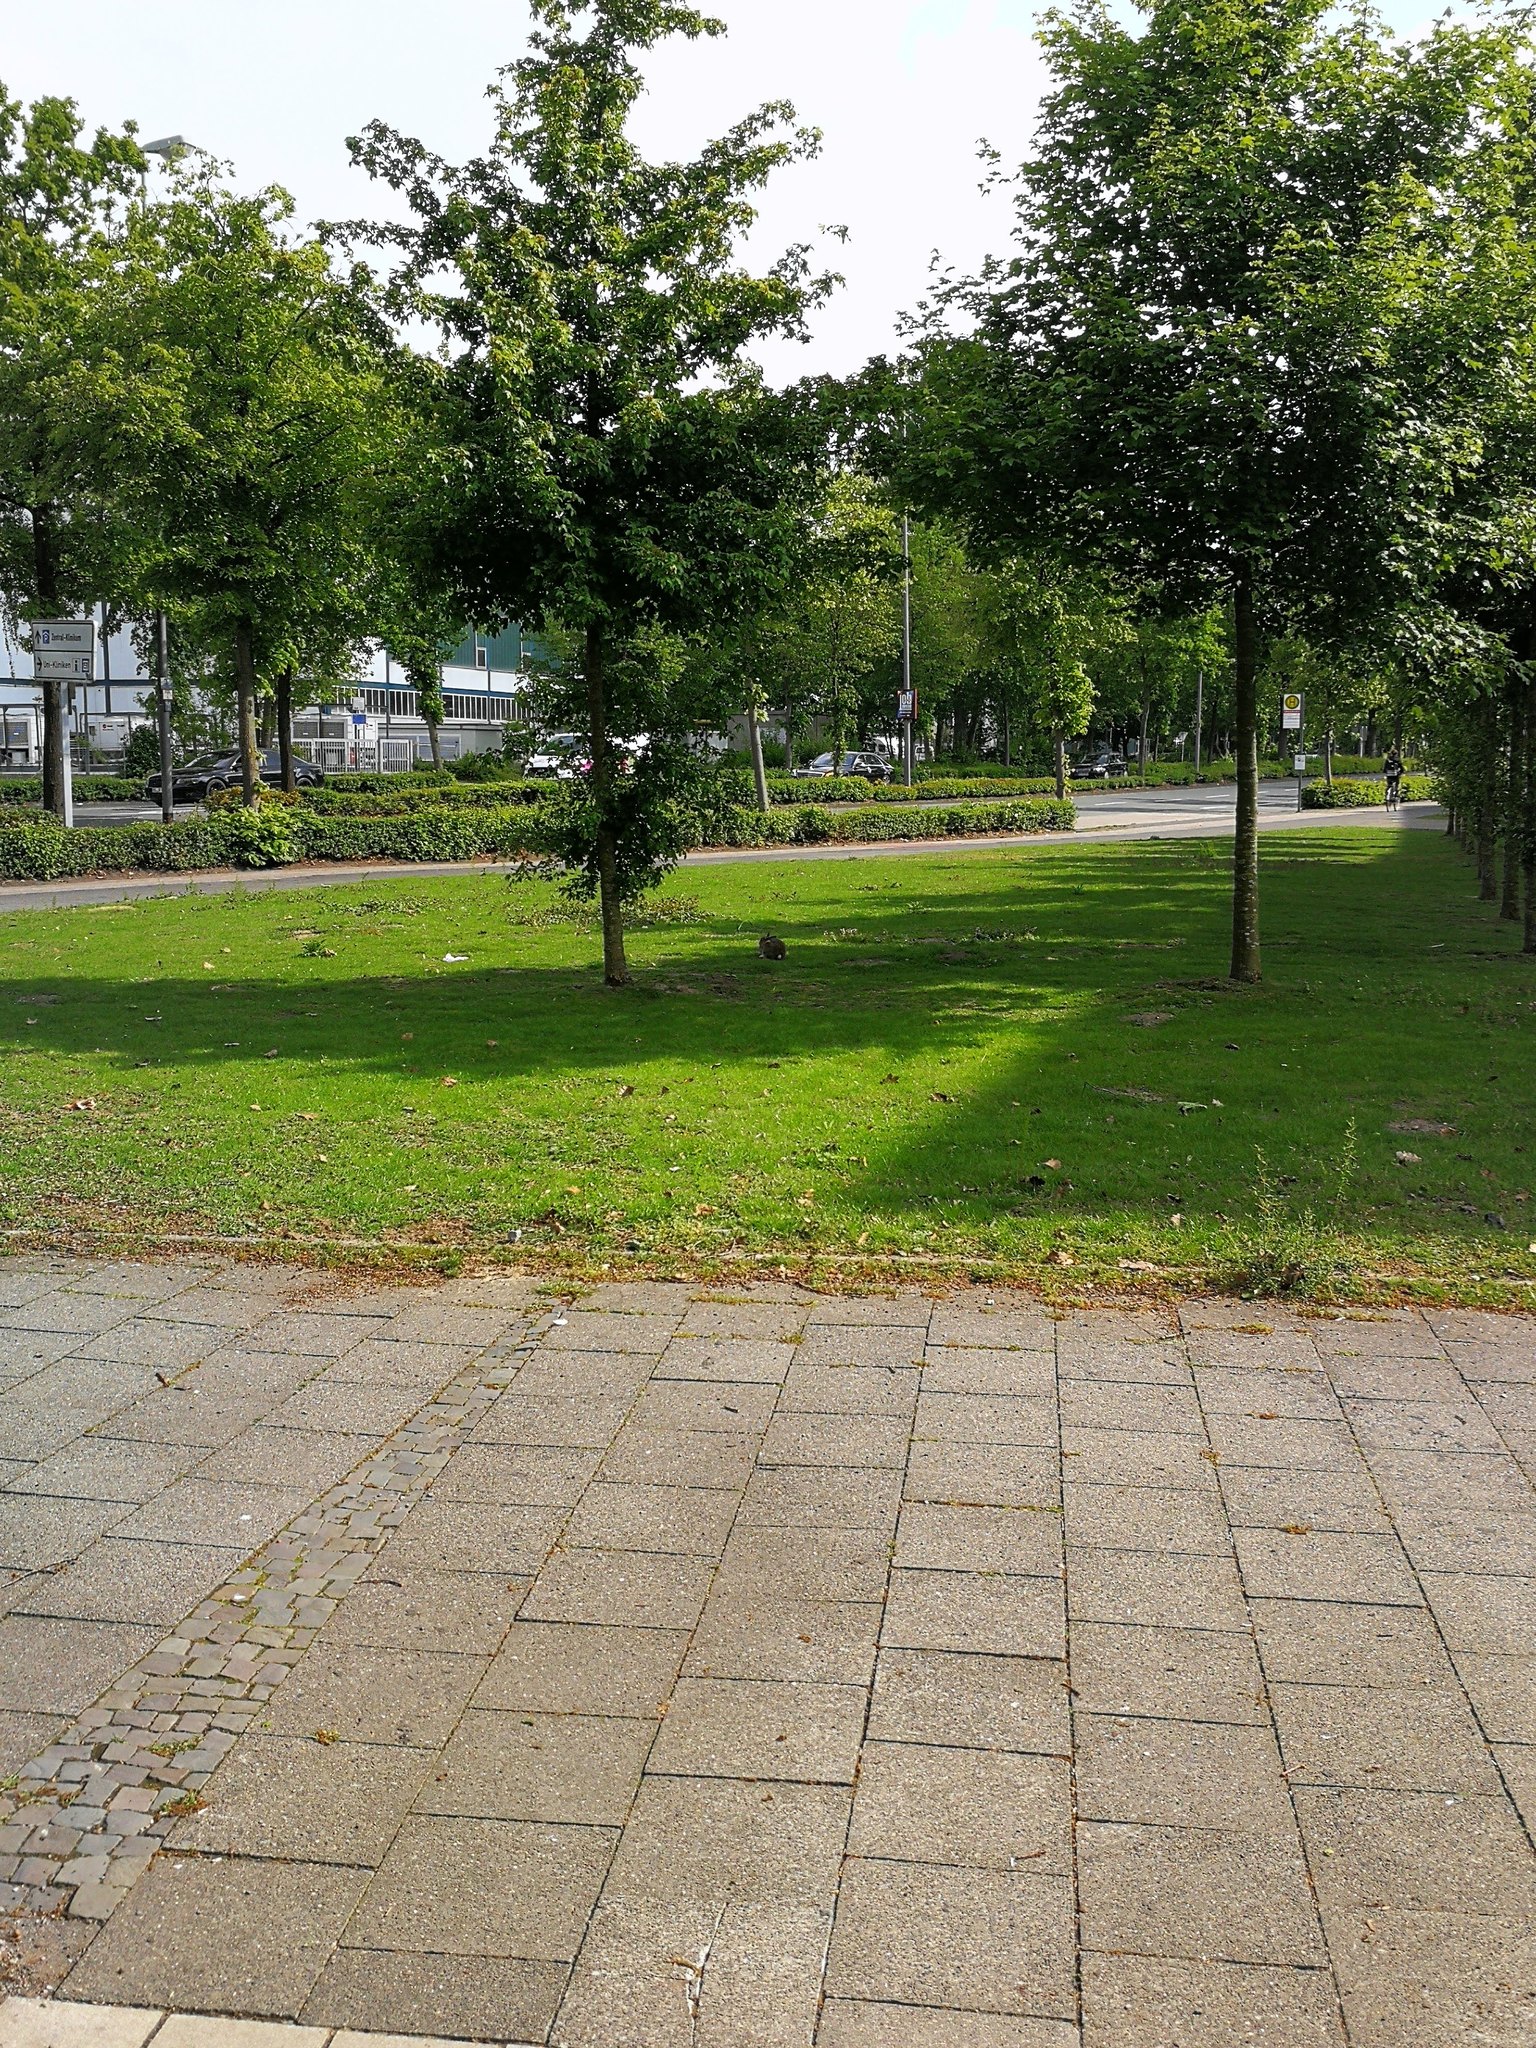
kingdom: Animalia
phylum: Chordata
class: Mammalia
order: Lagomorpha
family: Leporidae
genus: Oryctolagus
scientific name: Oryctolagus cuniculus
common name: European rabbit
